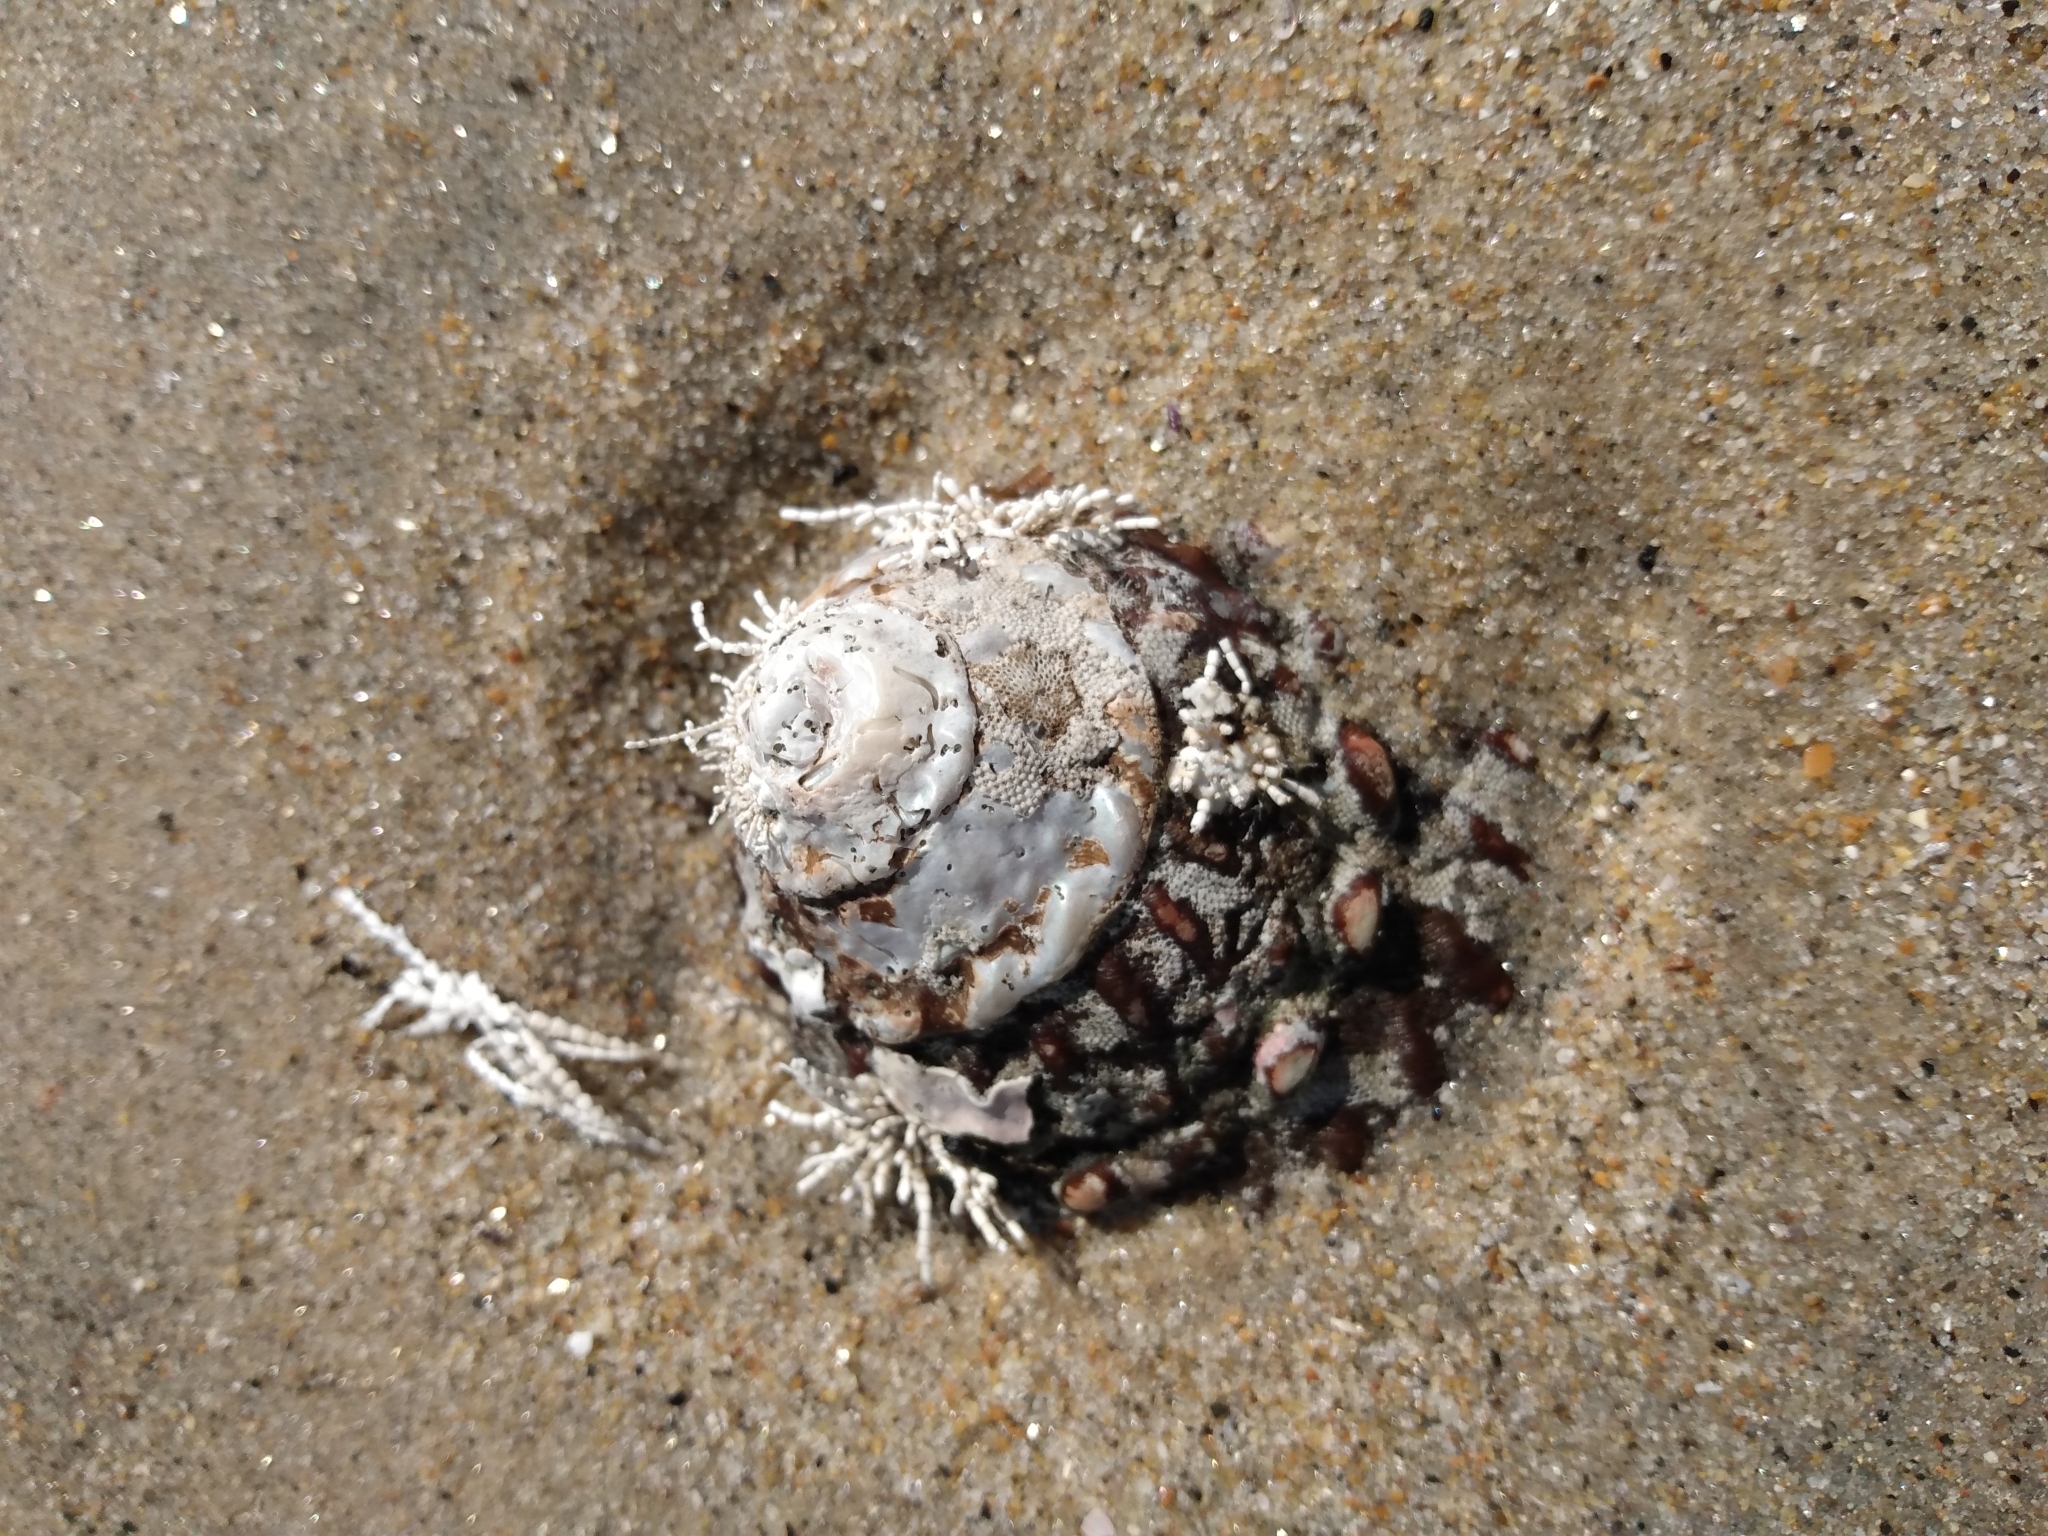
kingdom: Animalia
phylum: Mollusca
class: Gastropoda
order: Trochida
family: Turbinidae
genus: Megastraea
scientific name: Megastraea undosa
